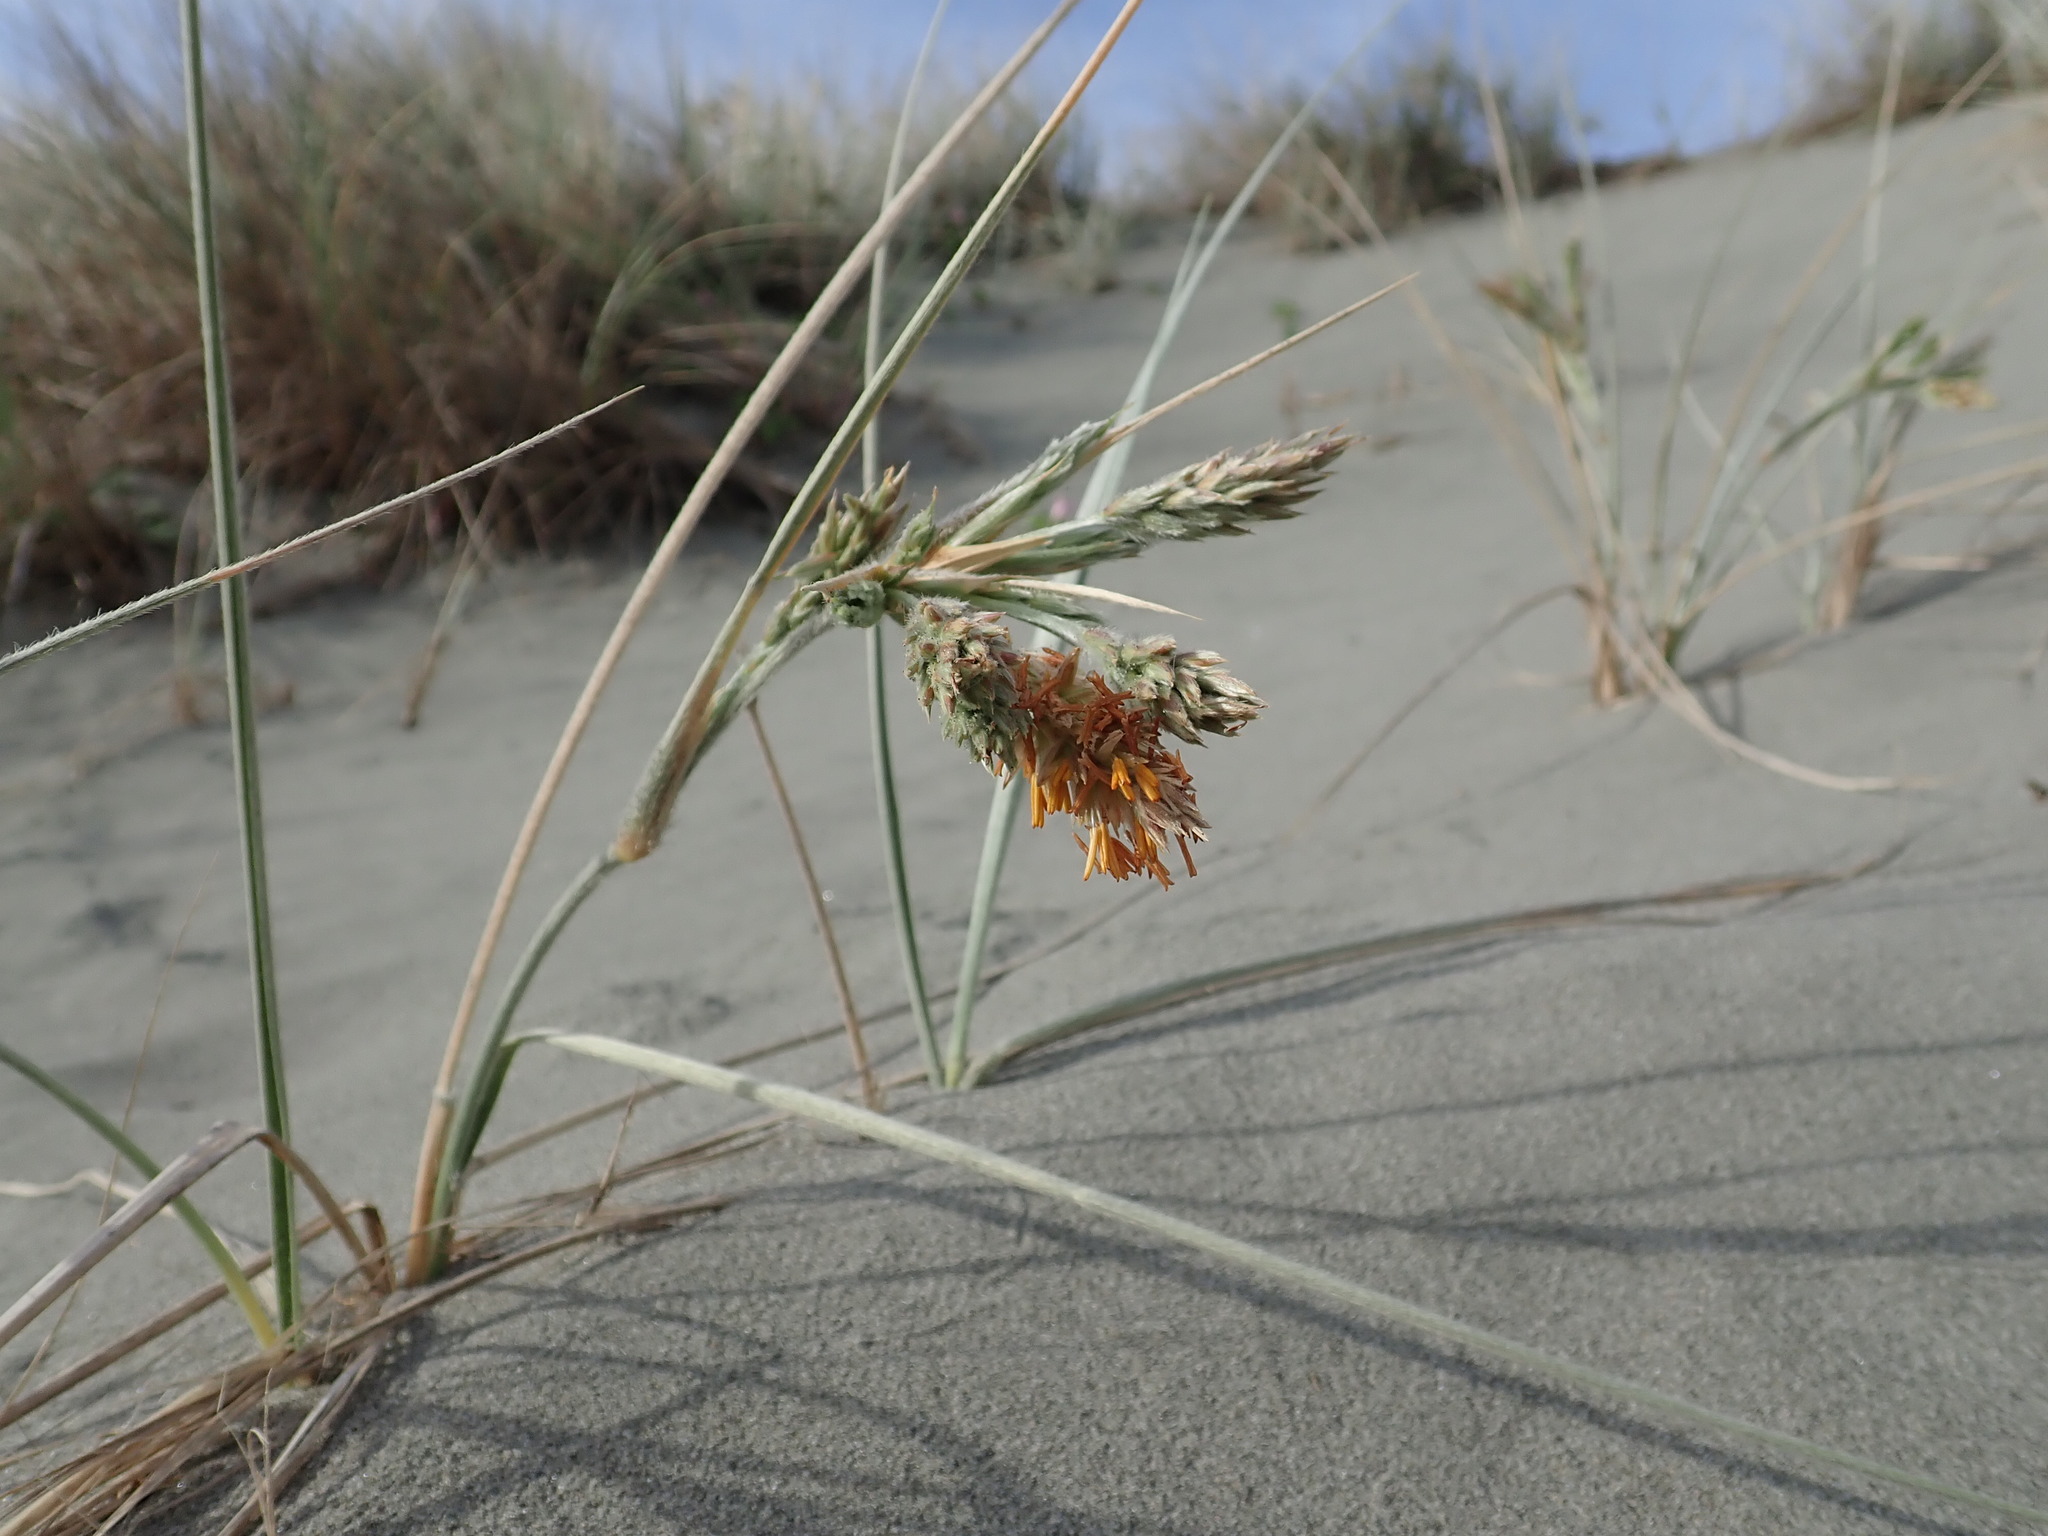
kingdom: Plantae
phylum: Tracheophyta
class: Liliopsida
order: Poales
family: Poaceae
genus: Spinifex
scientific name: Spinifex sericeus
